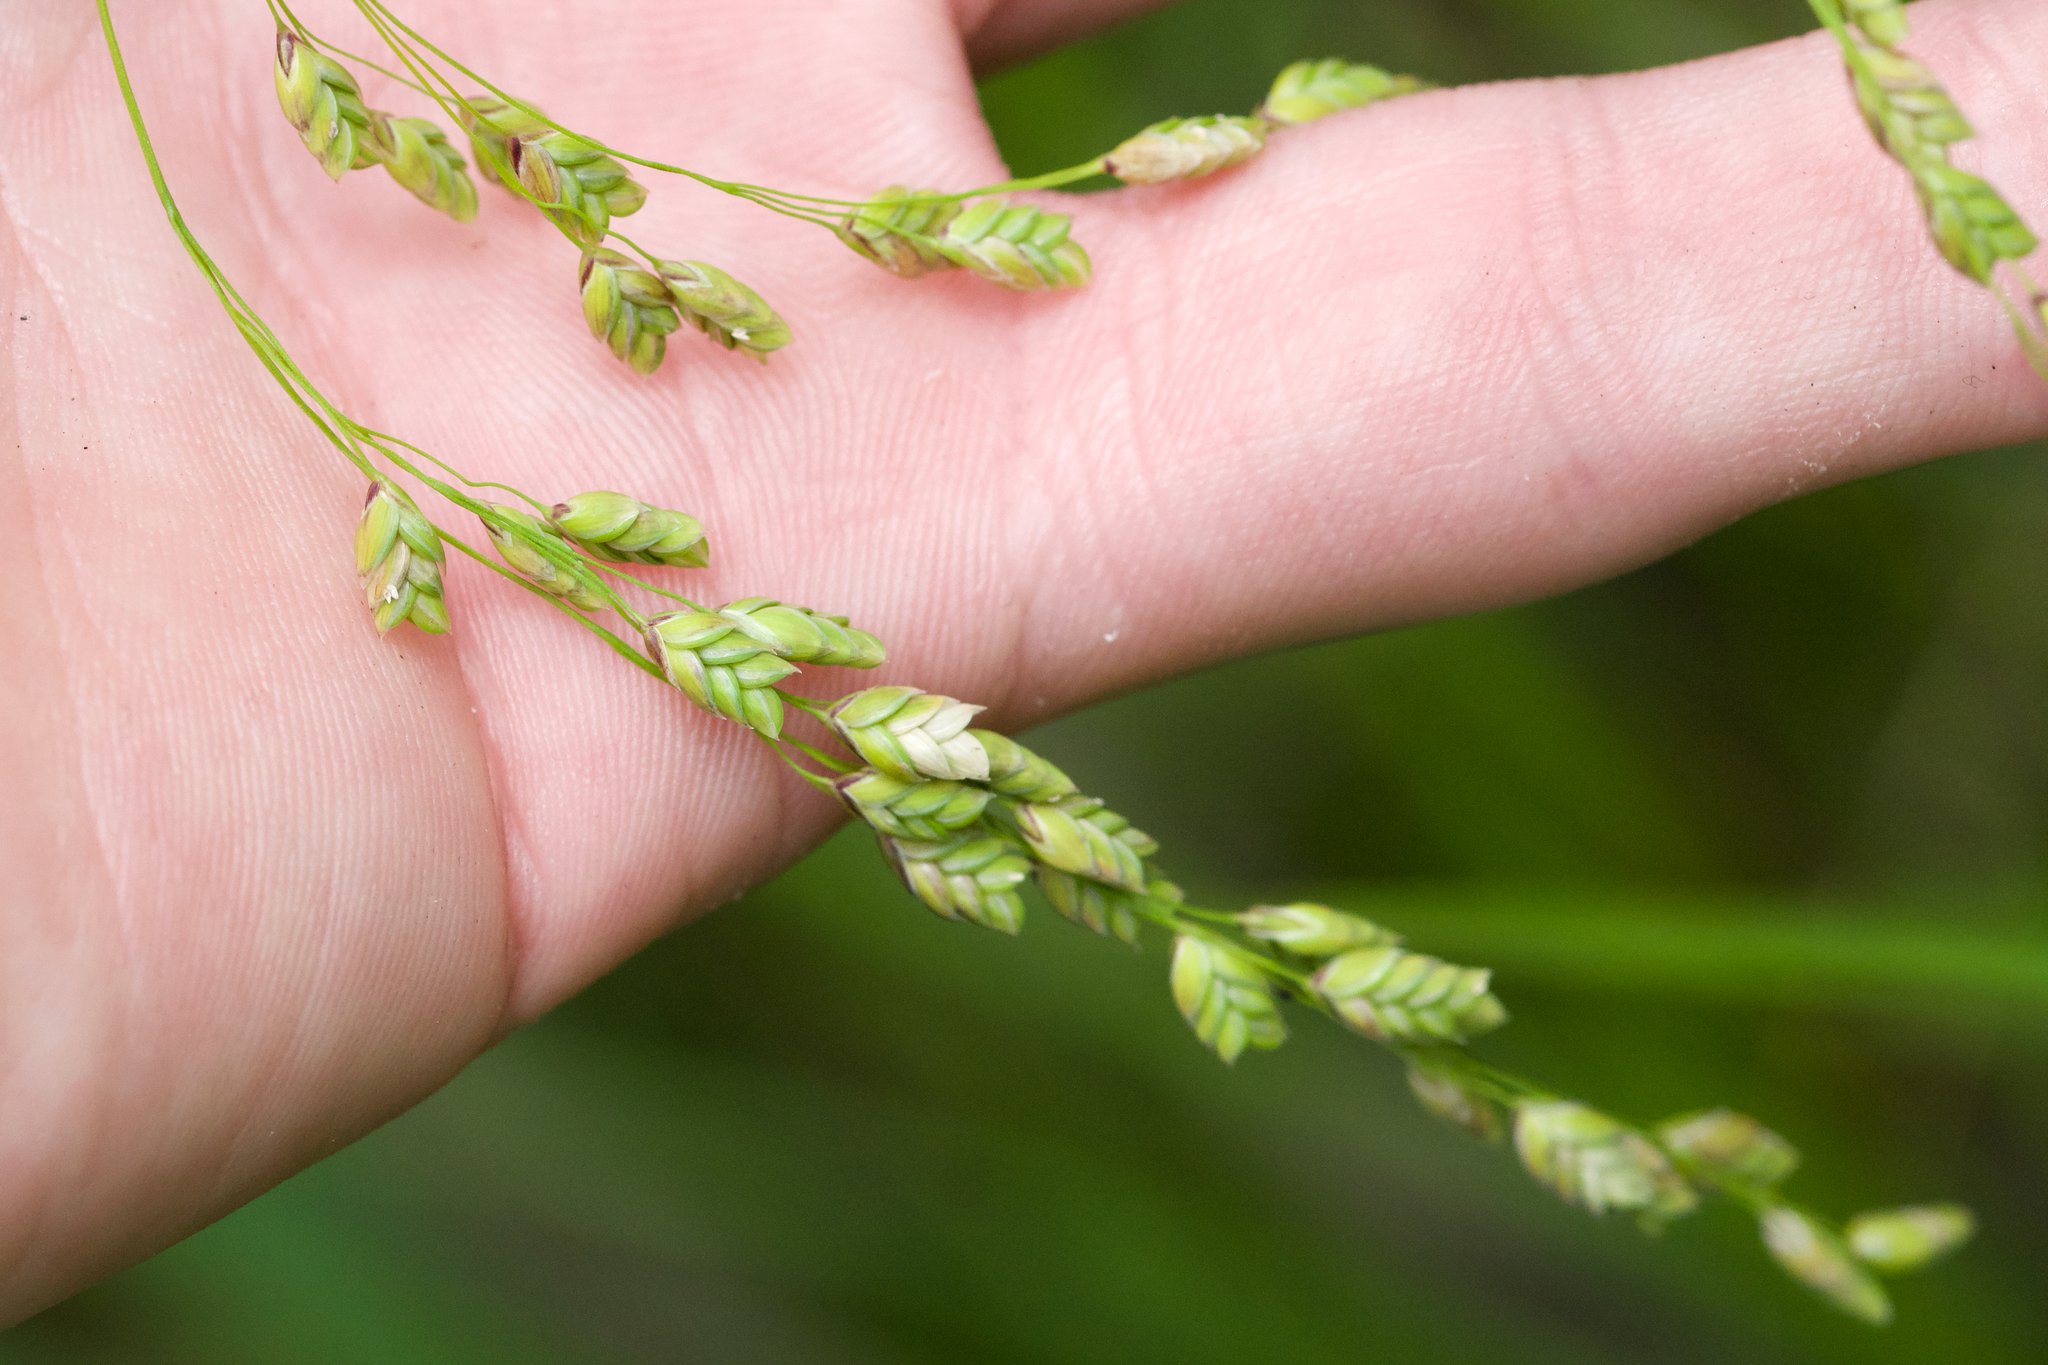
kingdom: Plantae
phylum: Tracheophyta
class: Liliopsida
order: Poales
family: Poaceae
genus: Glyceria
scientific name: Glyceria canadensis
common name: Canada mannagrass
